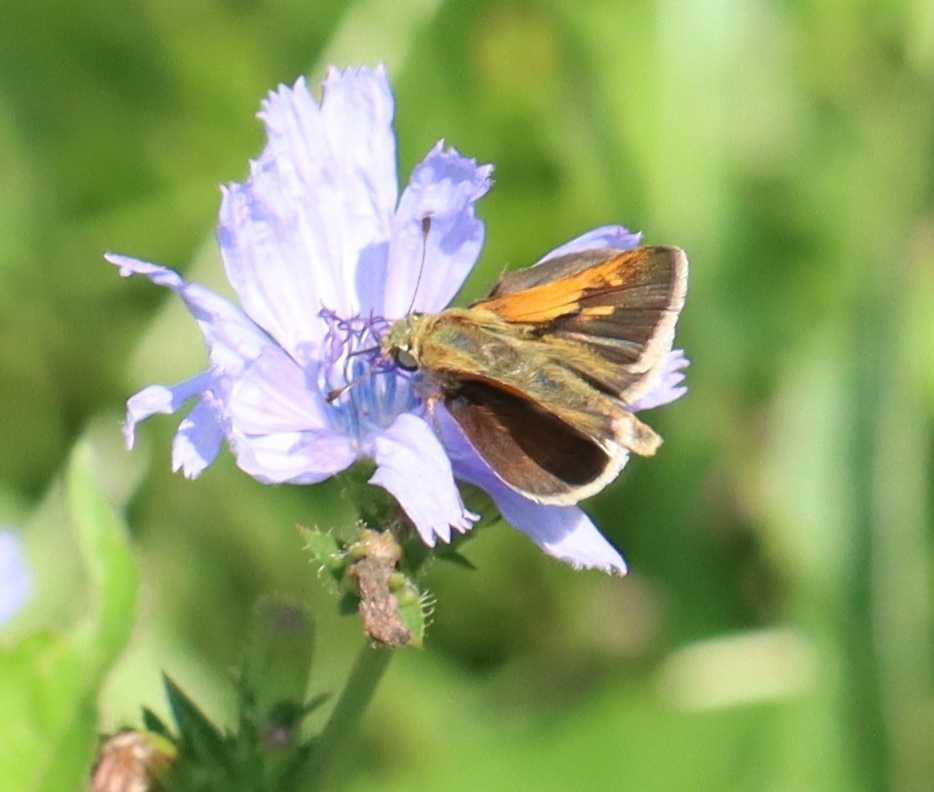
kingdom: Animalia
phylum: Arthropoda
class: Insecta
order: Lepidoptera
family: Hesperiidae
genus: Polites
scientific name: Polites themistocles
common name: Tawny-edged skipper
